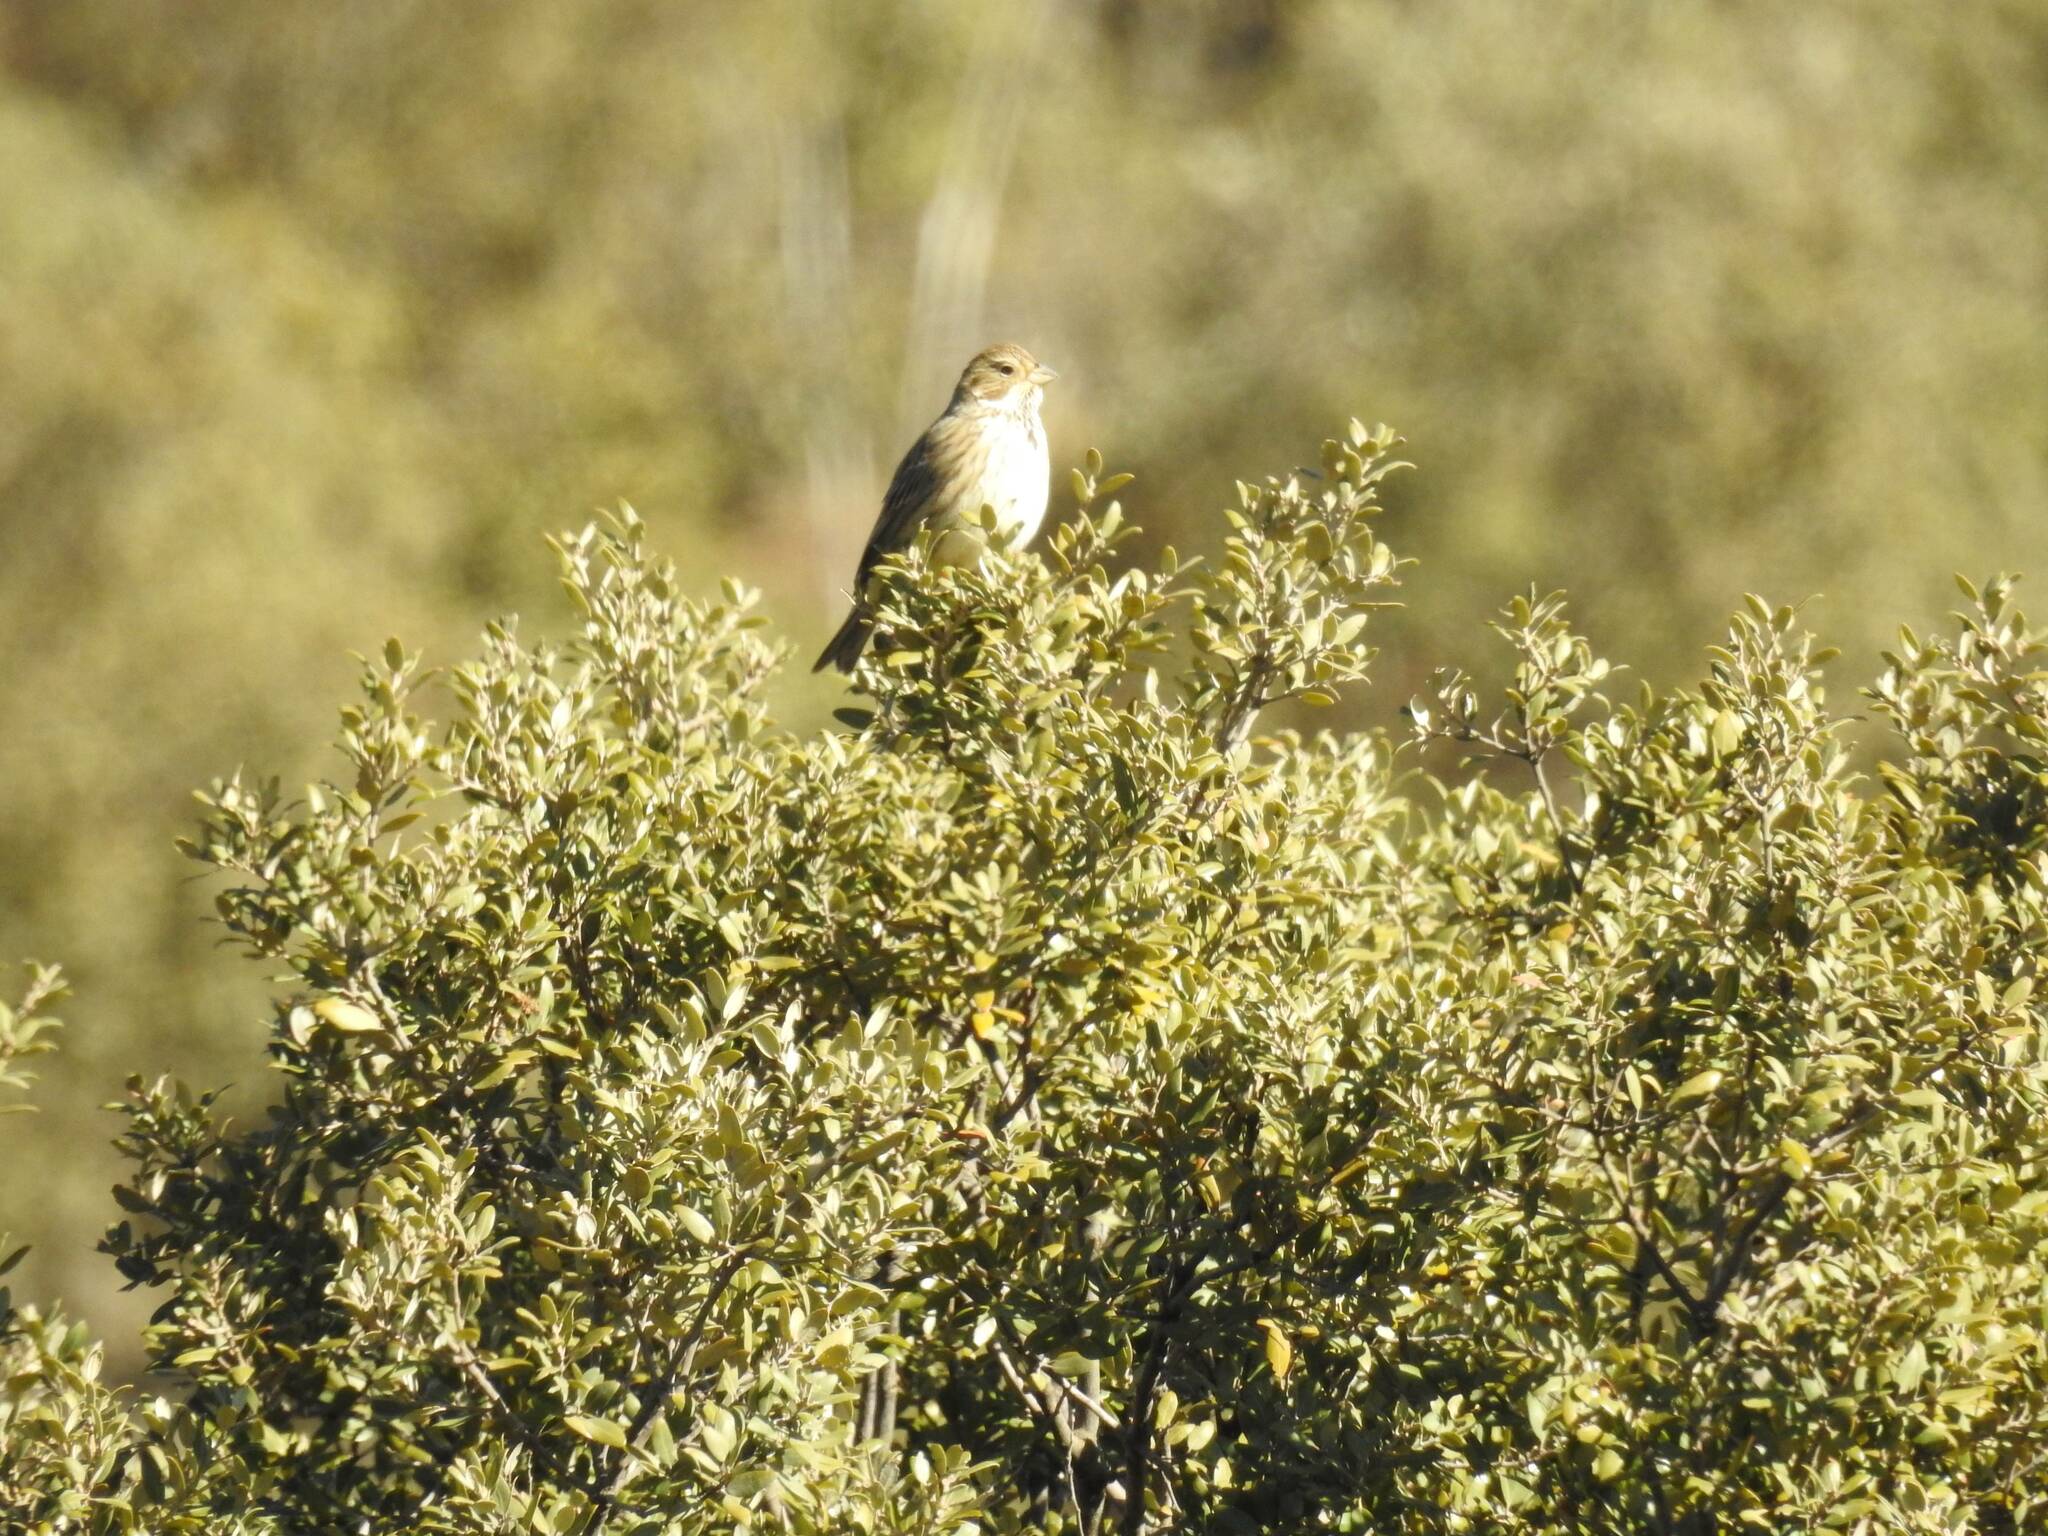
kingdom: Animalia
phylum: Chordata
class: Aves
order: Passeriformes
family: Emberizidae
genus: Emberiza
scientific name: Emberiza calandra
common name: Corn bunting
